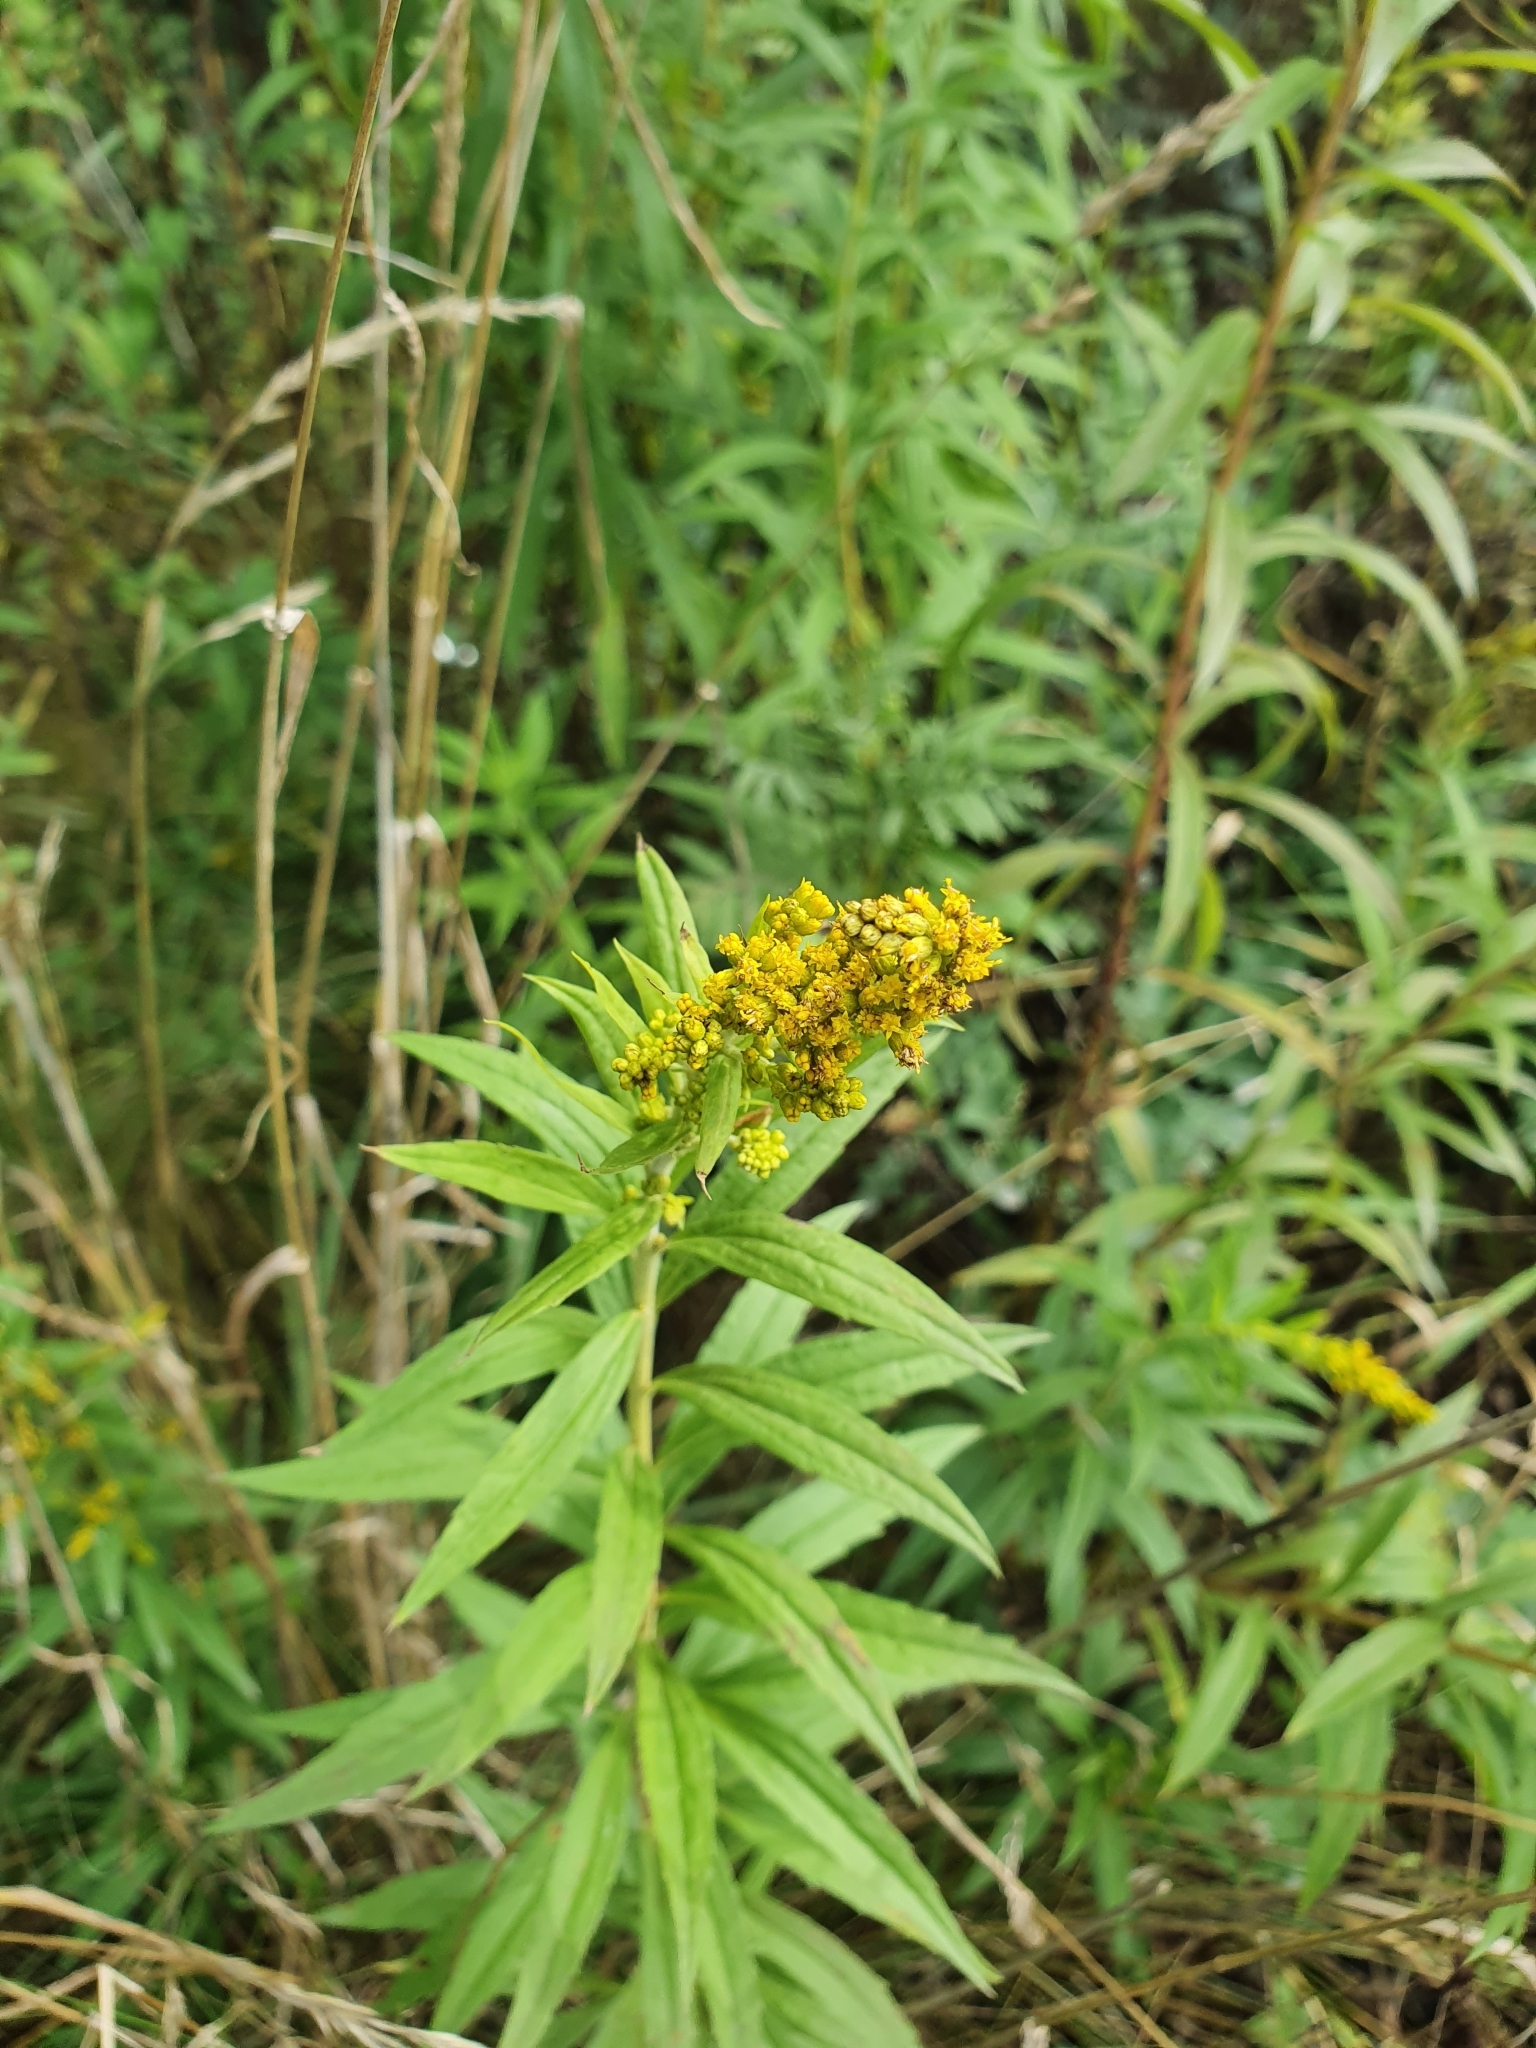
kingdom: Plantae
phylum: Tracheophyta
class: Magnoliopsida
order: Asterales
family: Asteraceae
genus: Solidago
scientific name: Solidago canadensis
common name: Canada goldenrod
